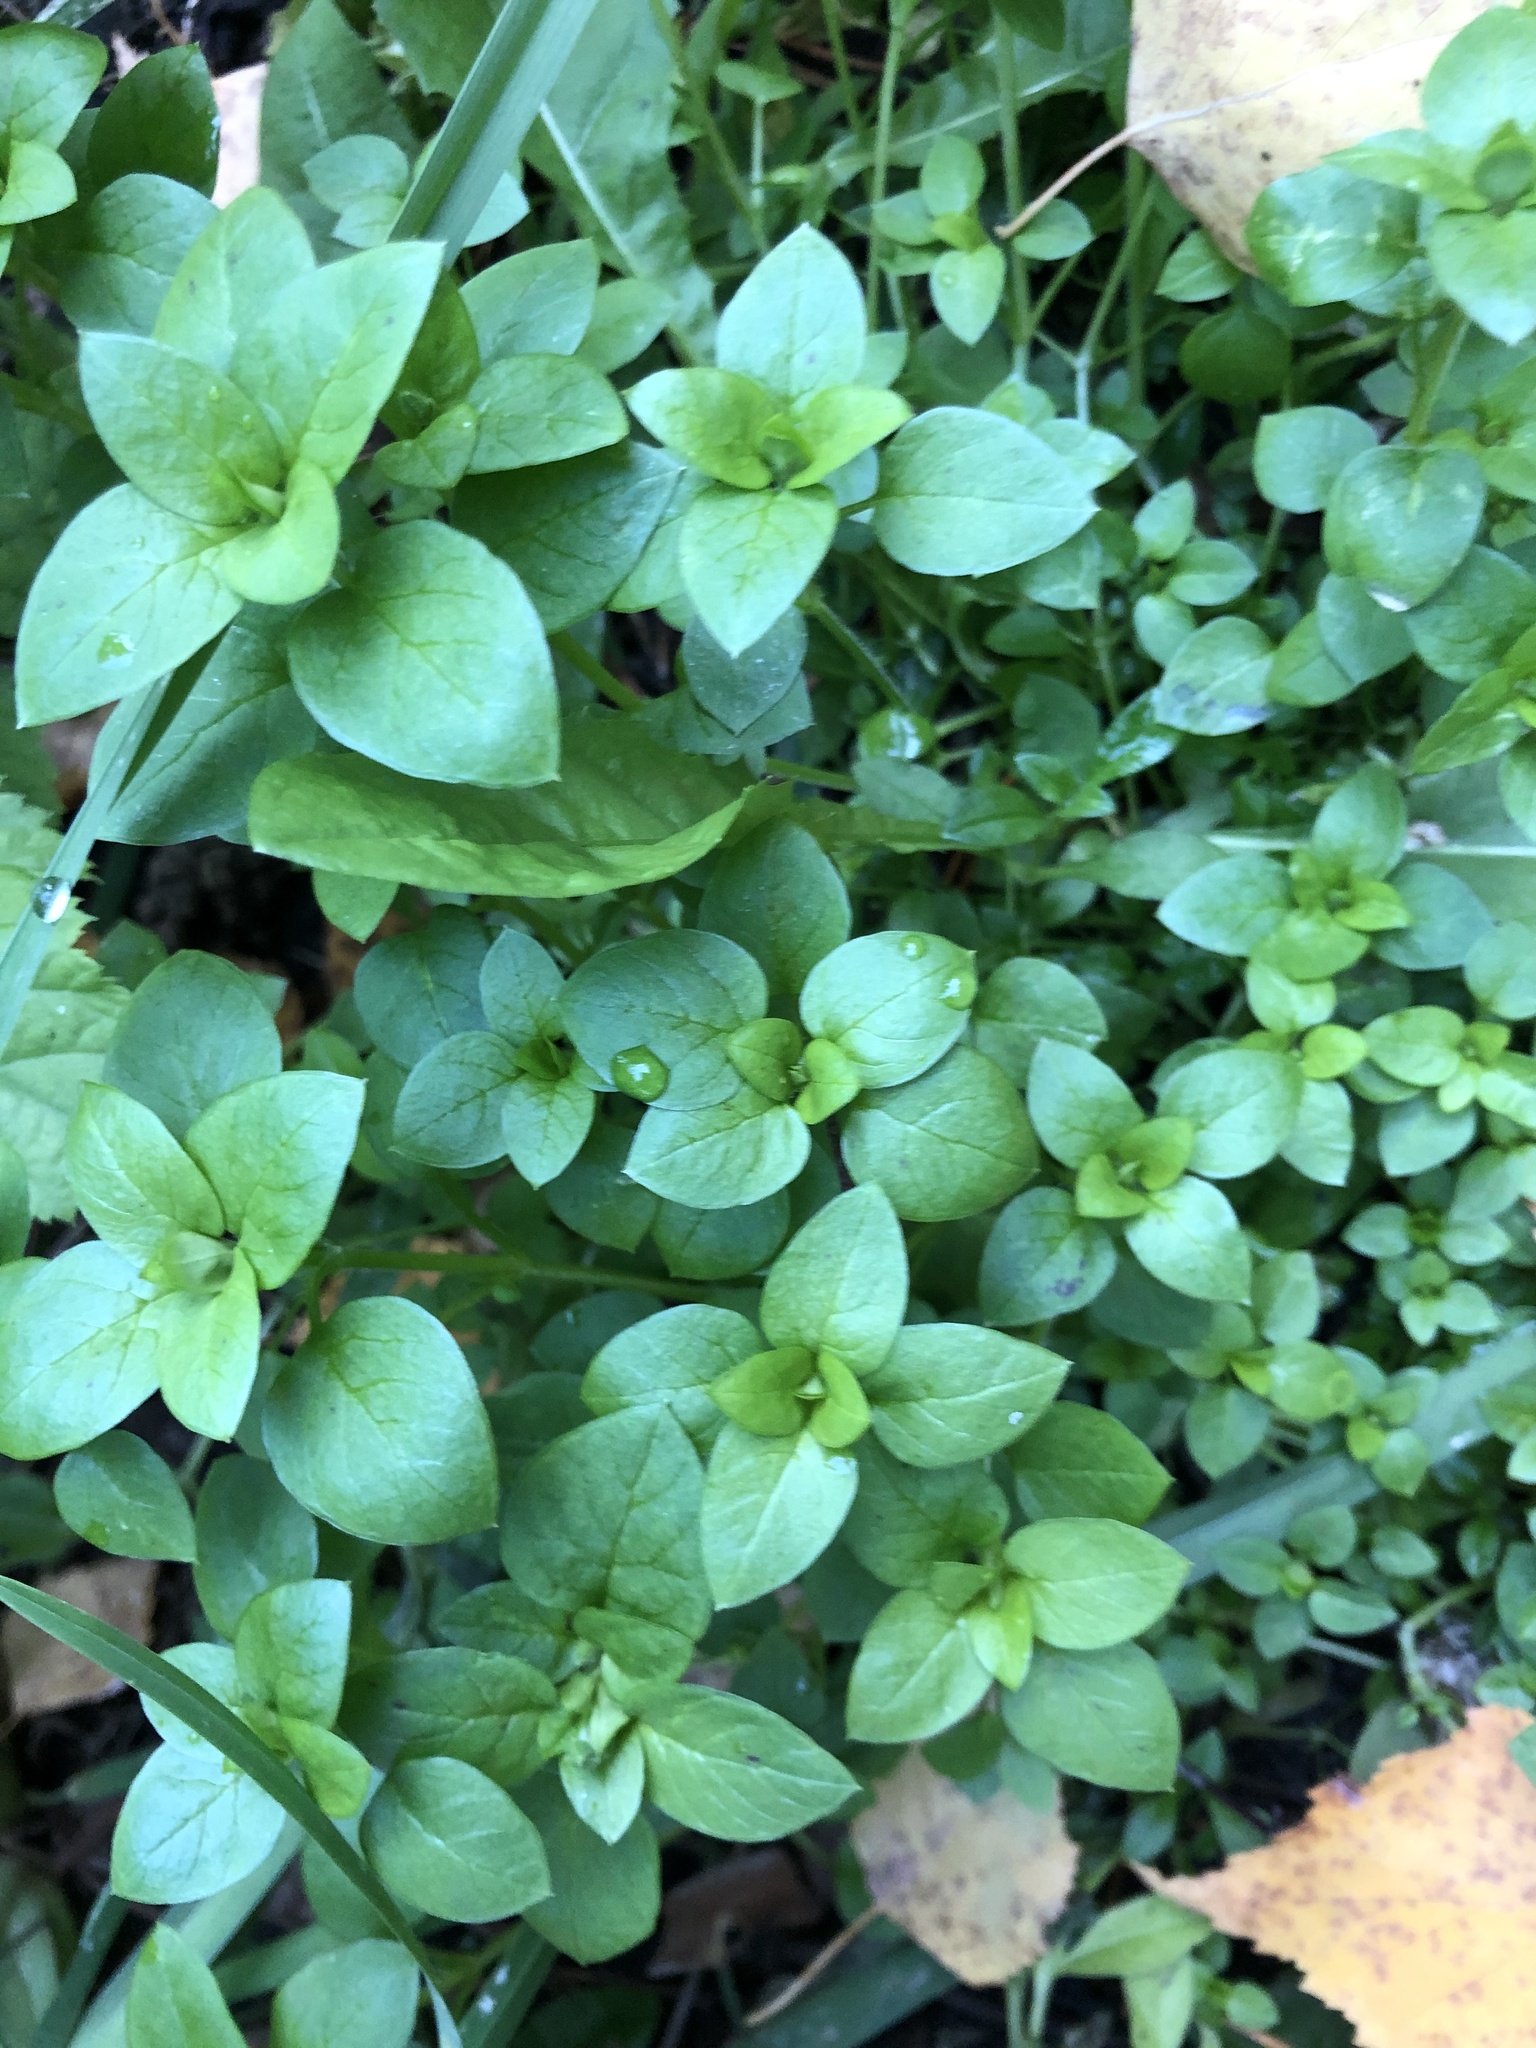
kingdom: Plantae
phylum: Tracheophyta
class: Magnoliopsida
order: Caryophyllales
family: Caryophyllaceae
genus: Stellaria
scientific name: Stellaria media
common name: Common chickweed
